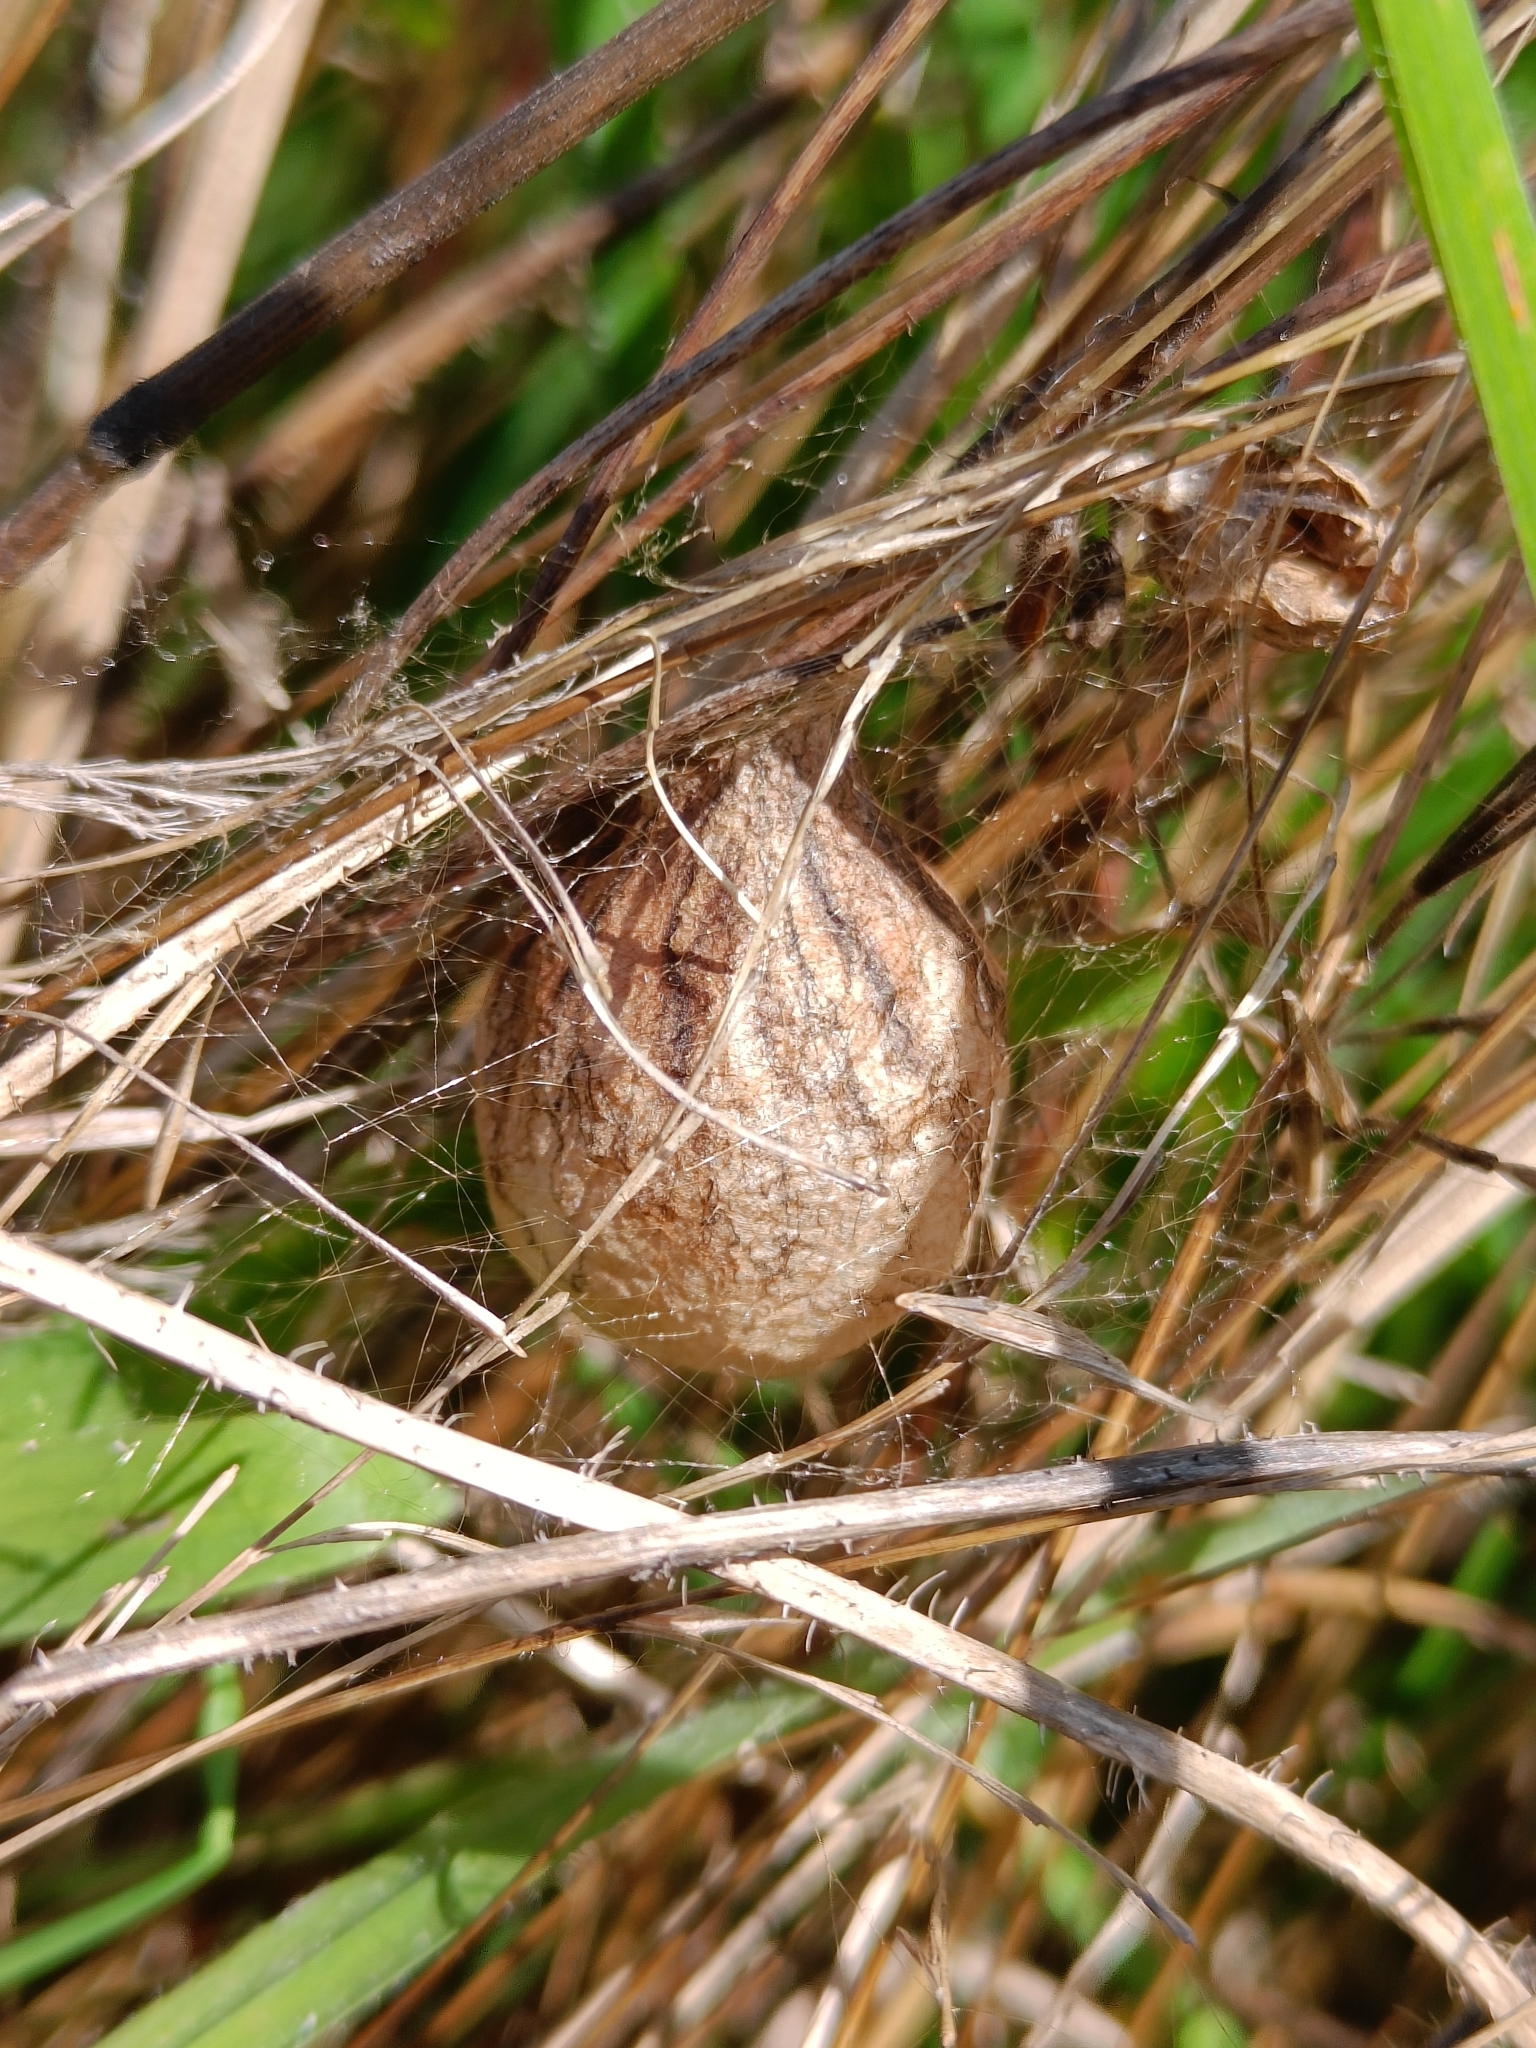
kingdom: Animalia
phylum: Arthropoda
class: Arachnida
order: Araneae
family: Araneidae
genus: Argiope
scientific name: Argiope bruennichi
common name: Wasp spider
